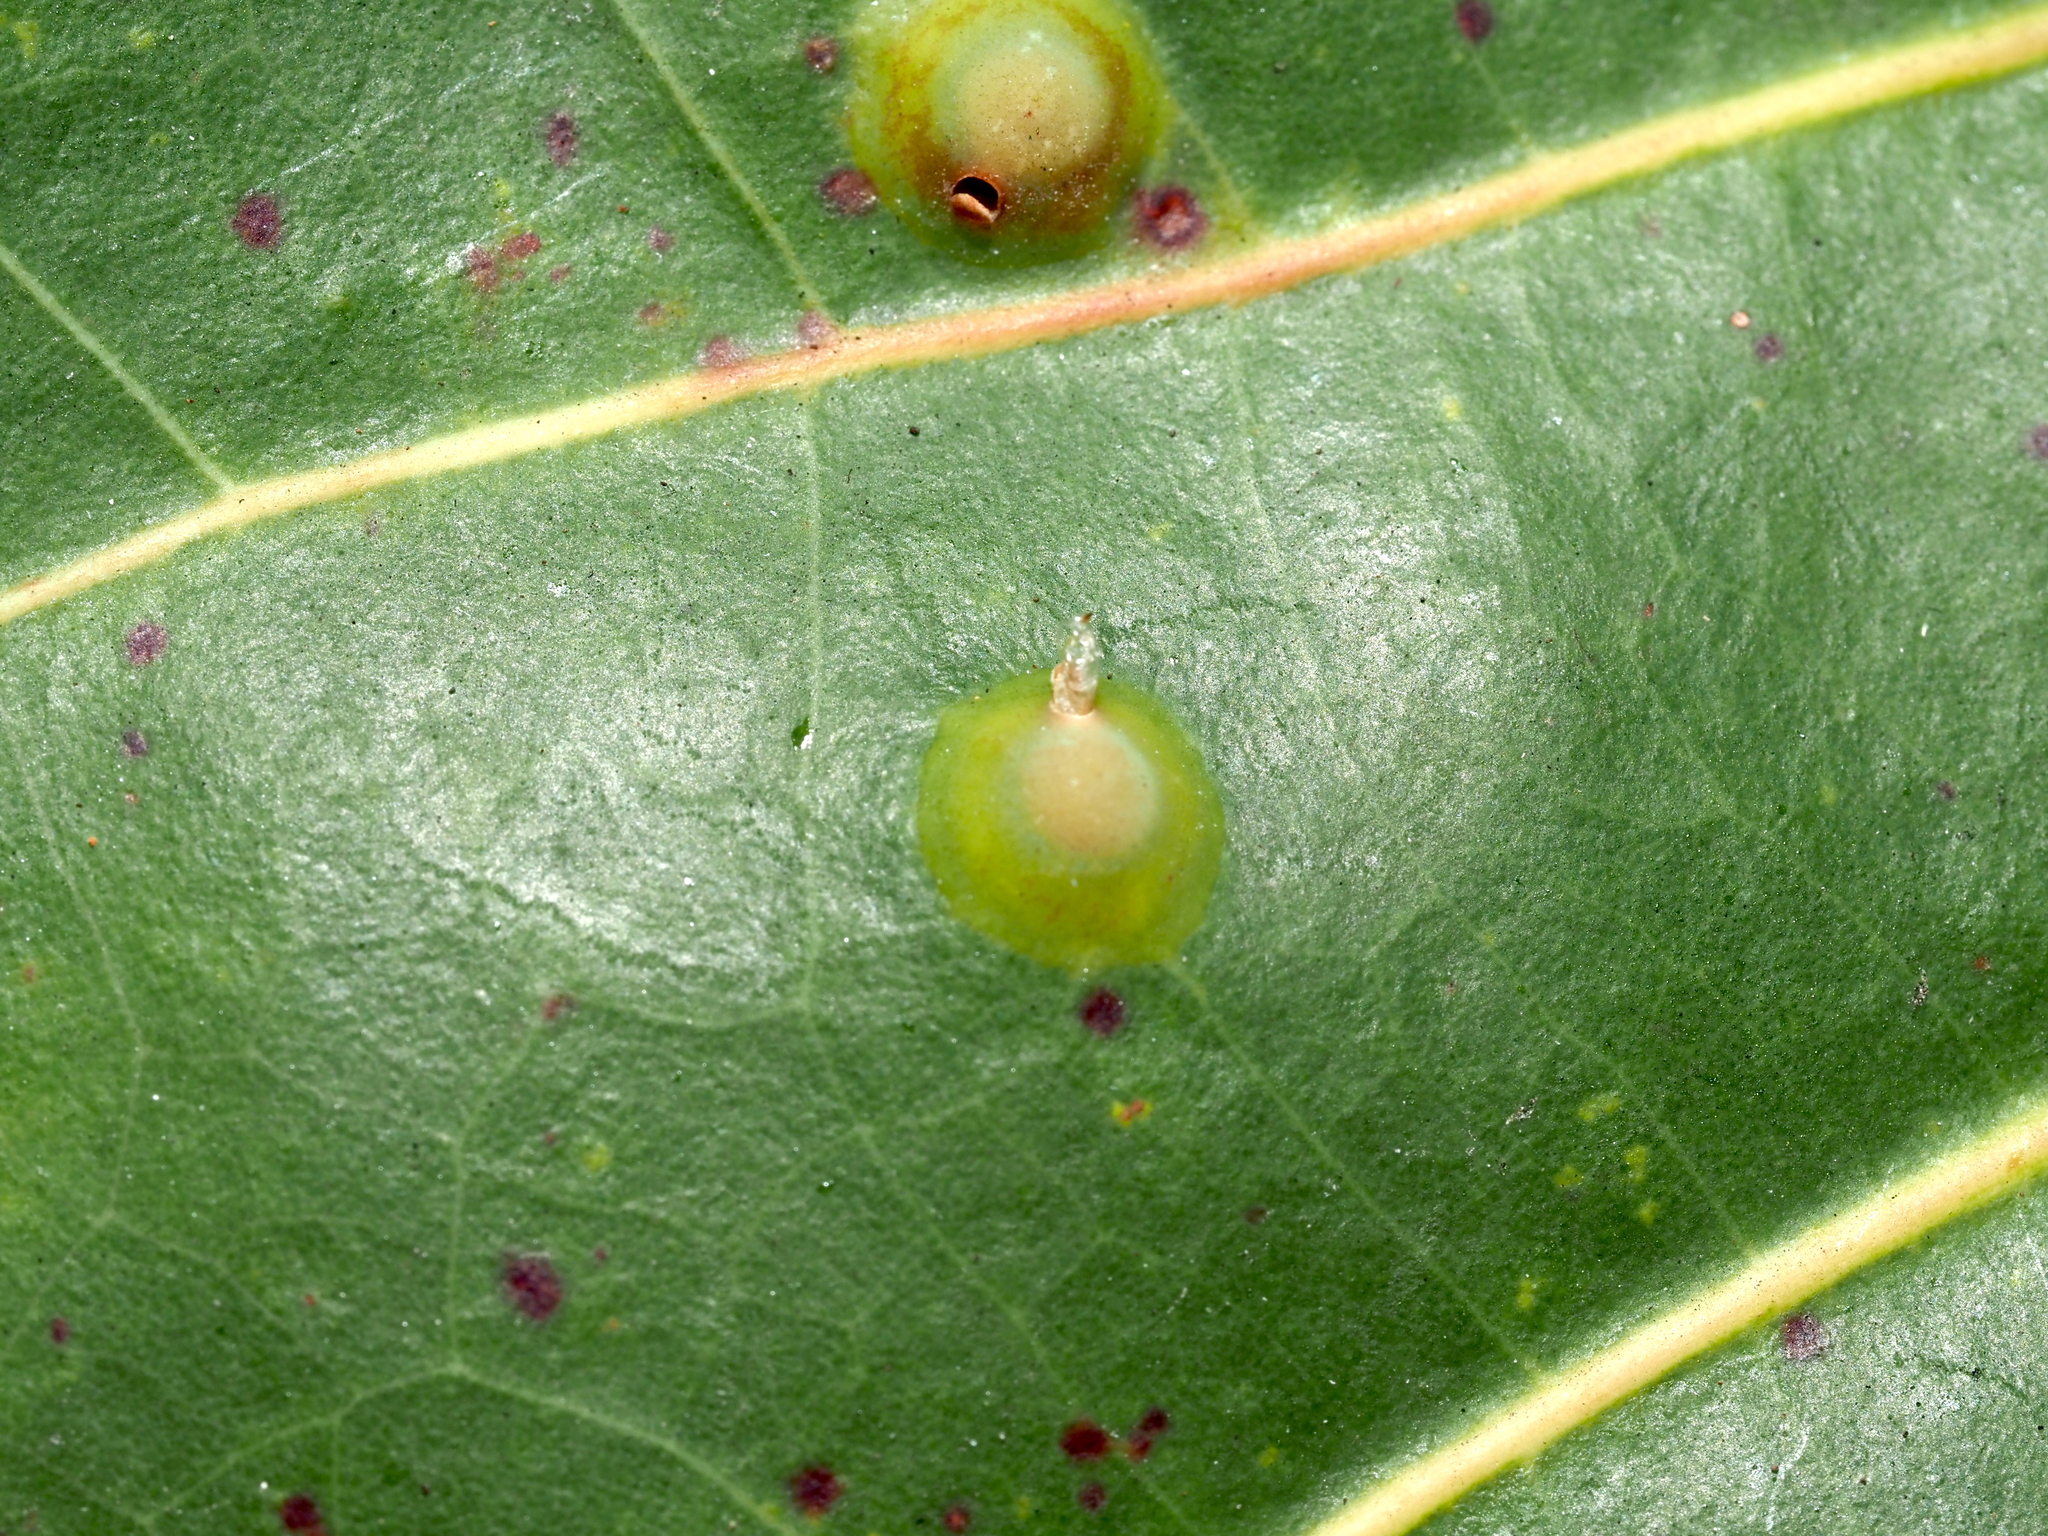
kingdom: Animalia
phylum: Arthropoda
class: Insecta
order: Diptera
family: Cecidomyiidae
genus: Ctenodactylomyia
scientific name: Ctenodactylomyia watsoni
